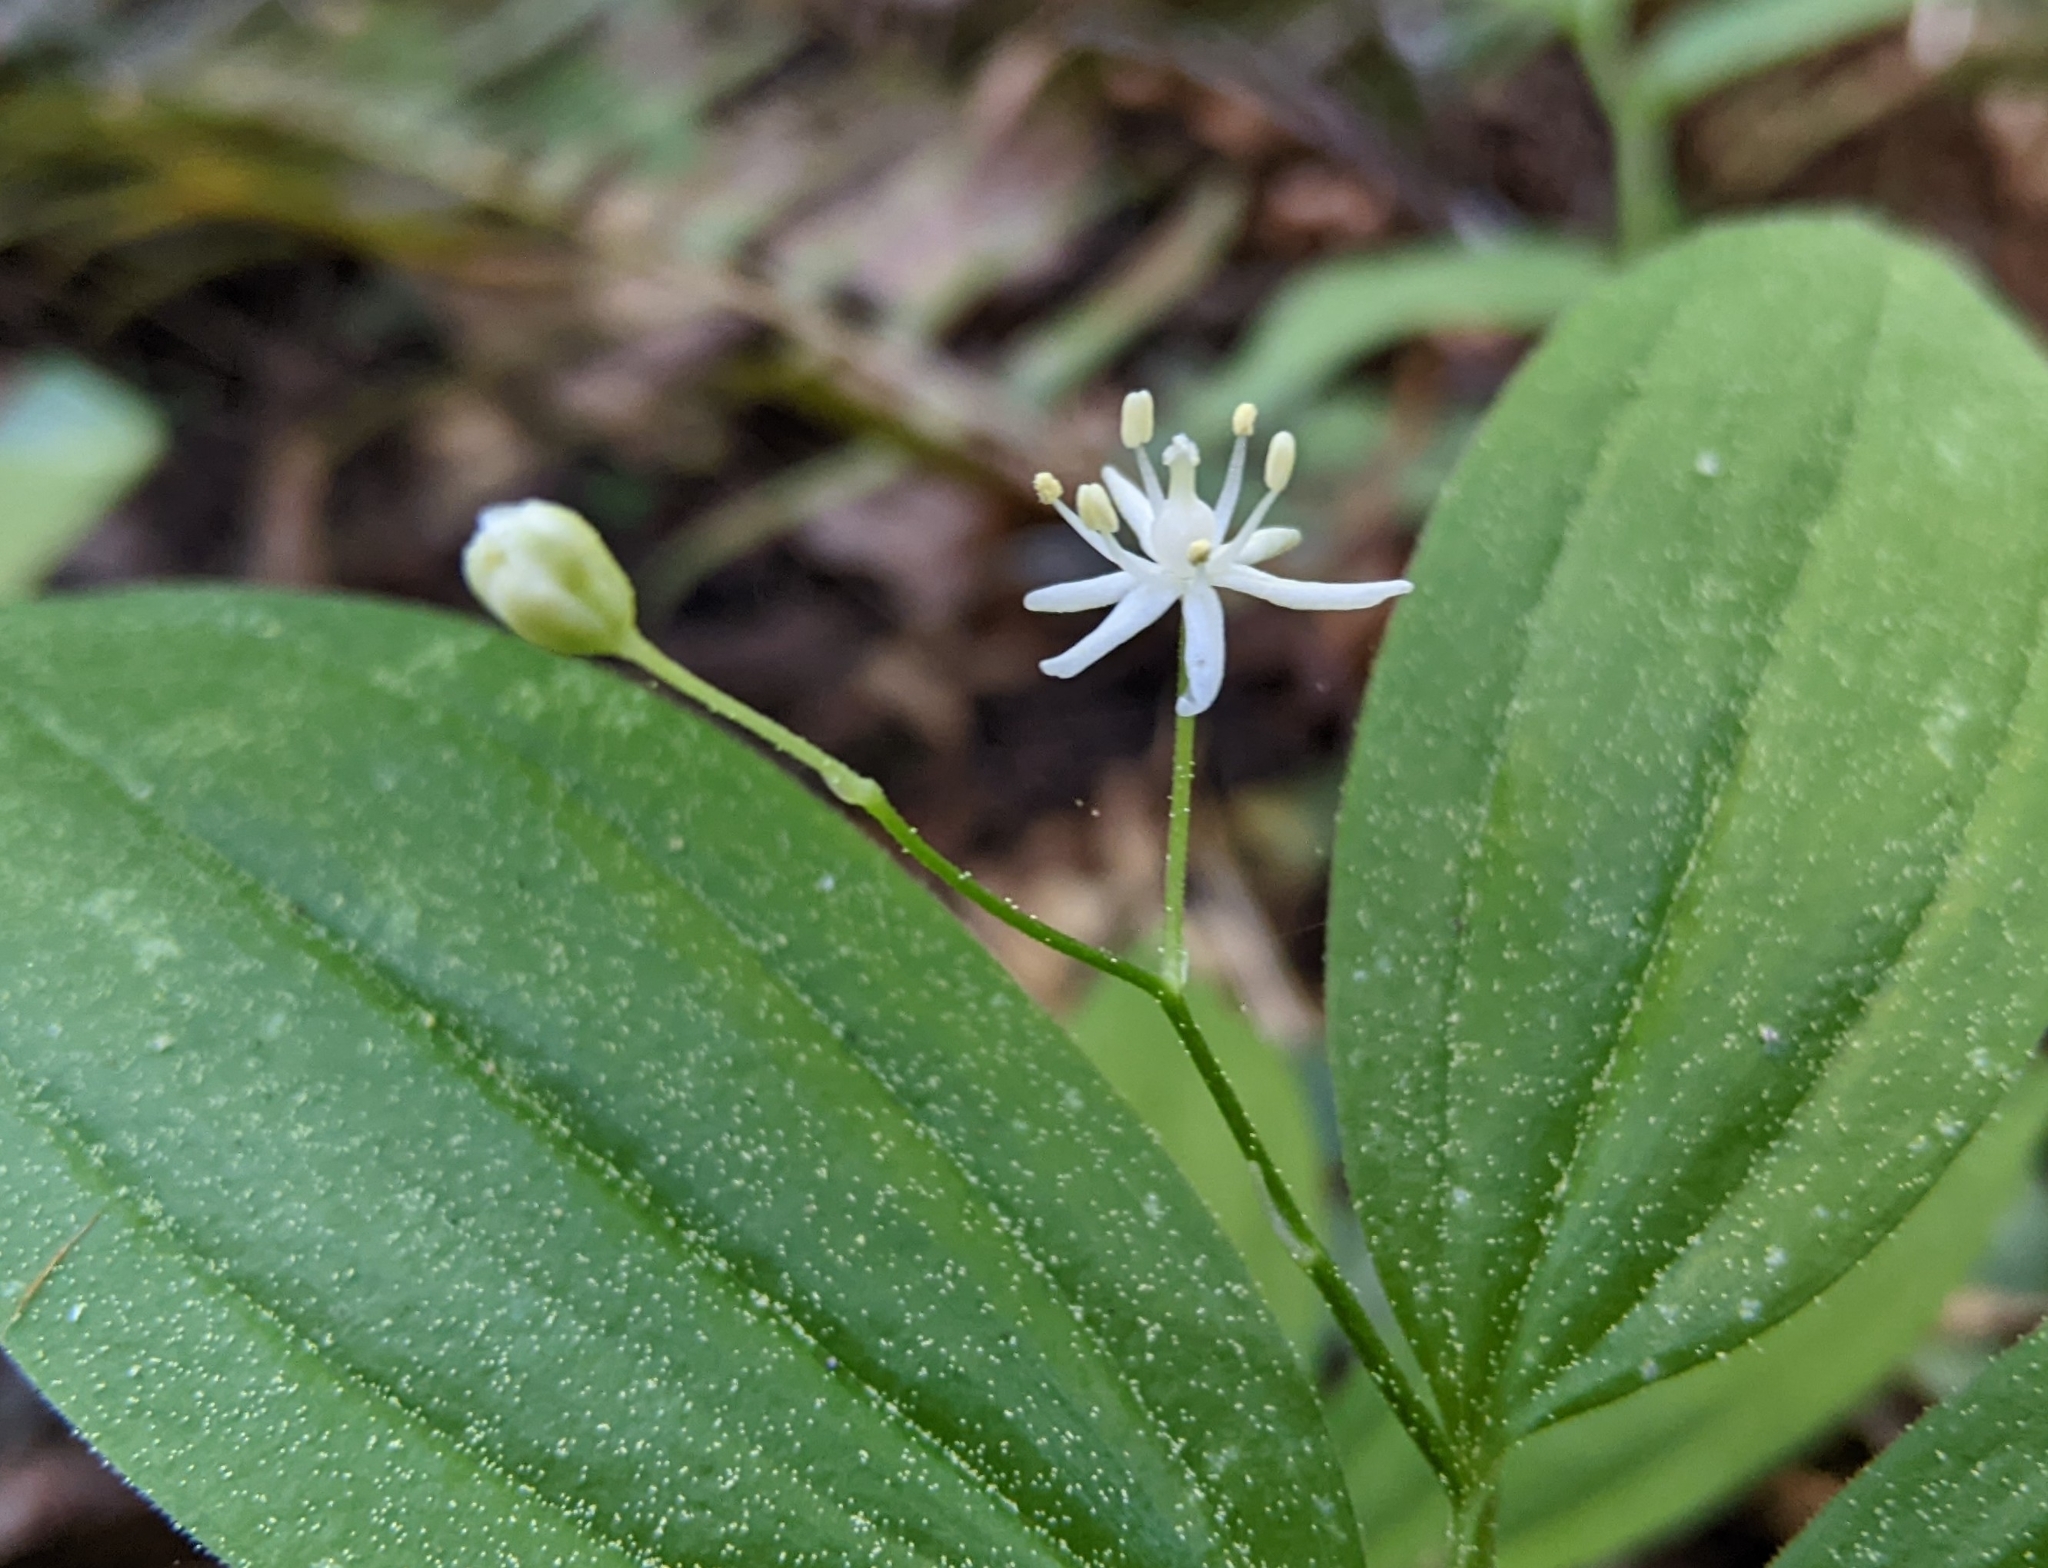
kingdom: Plantae
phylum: Tracheophyta
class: Liliopsida
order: Asparagales
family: Asparagaceae
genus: Maianthemum
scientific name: Maianthemum stellatum
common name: Little false solomon's seal
